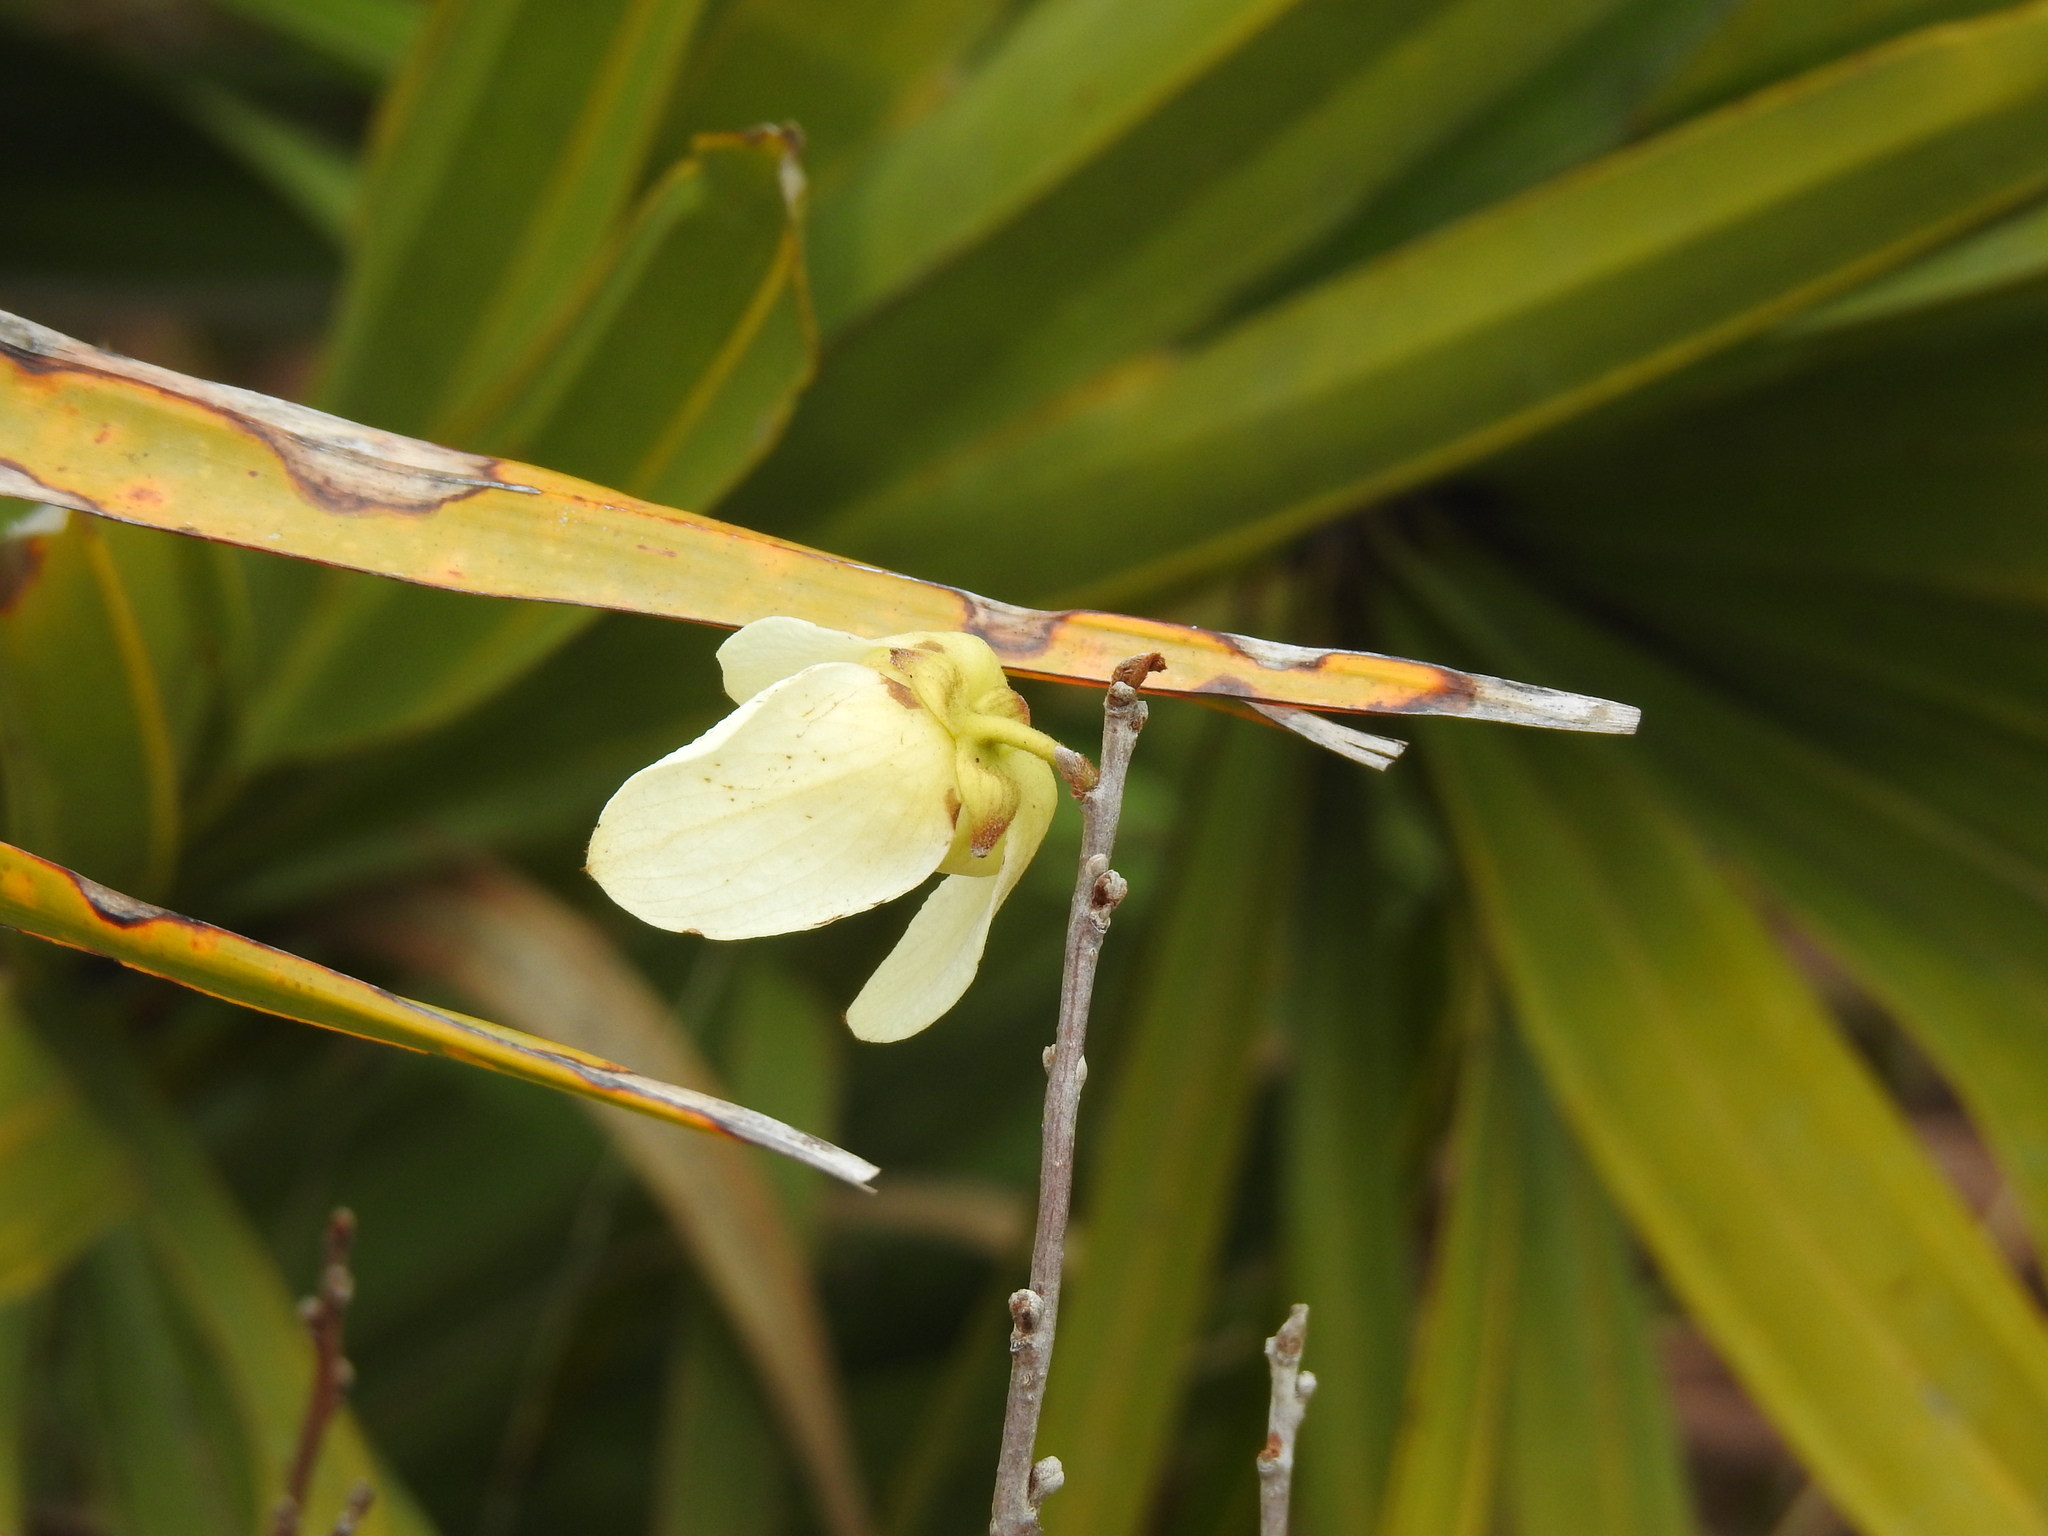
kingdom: Plantae
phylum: Tracheophyta
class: Magnoliopsida
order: Magnoliales
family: Annonaceae
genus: Asimina
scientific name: Asimina reticulata
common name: Flag pawpaw
